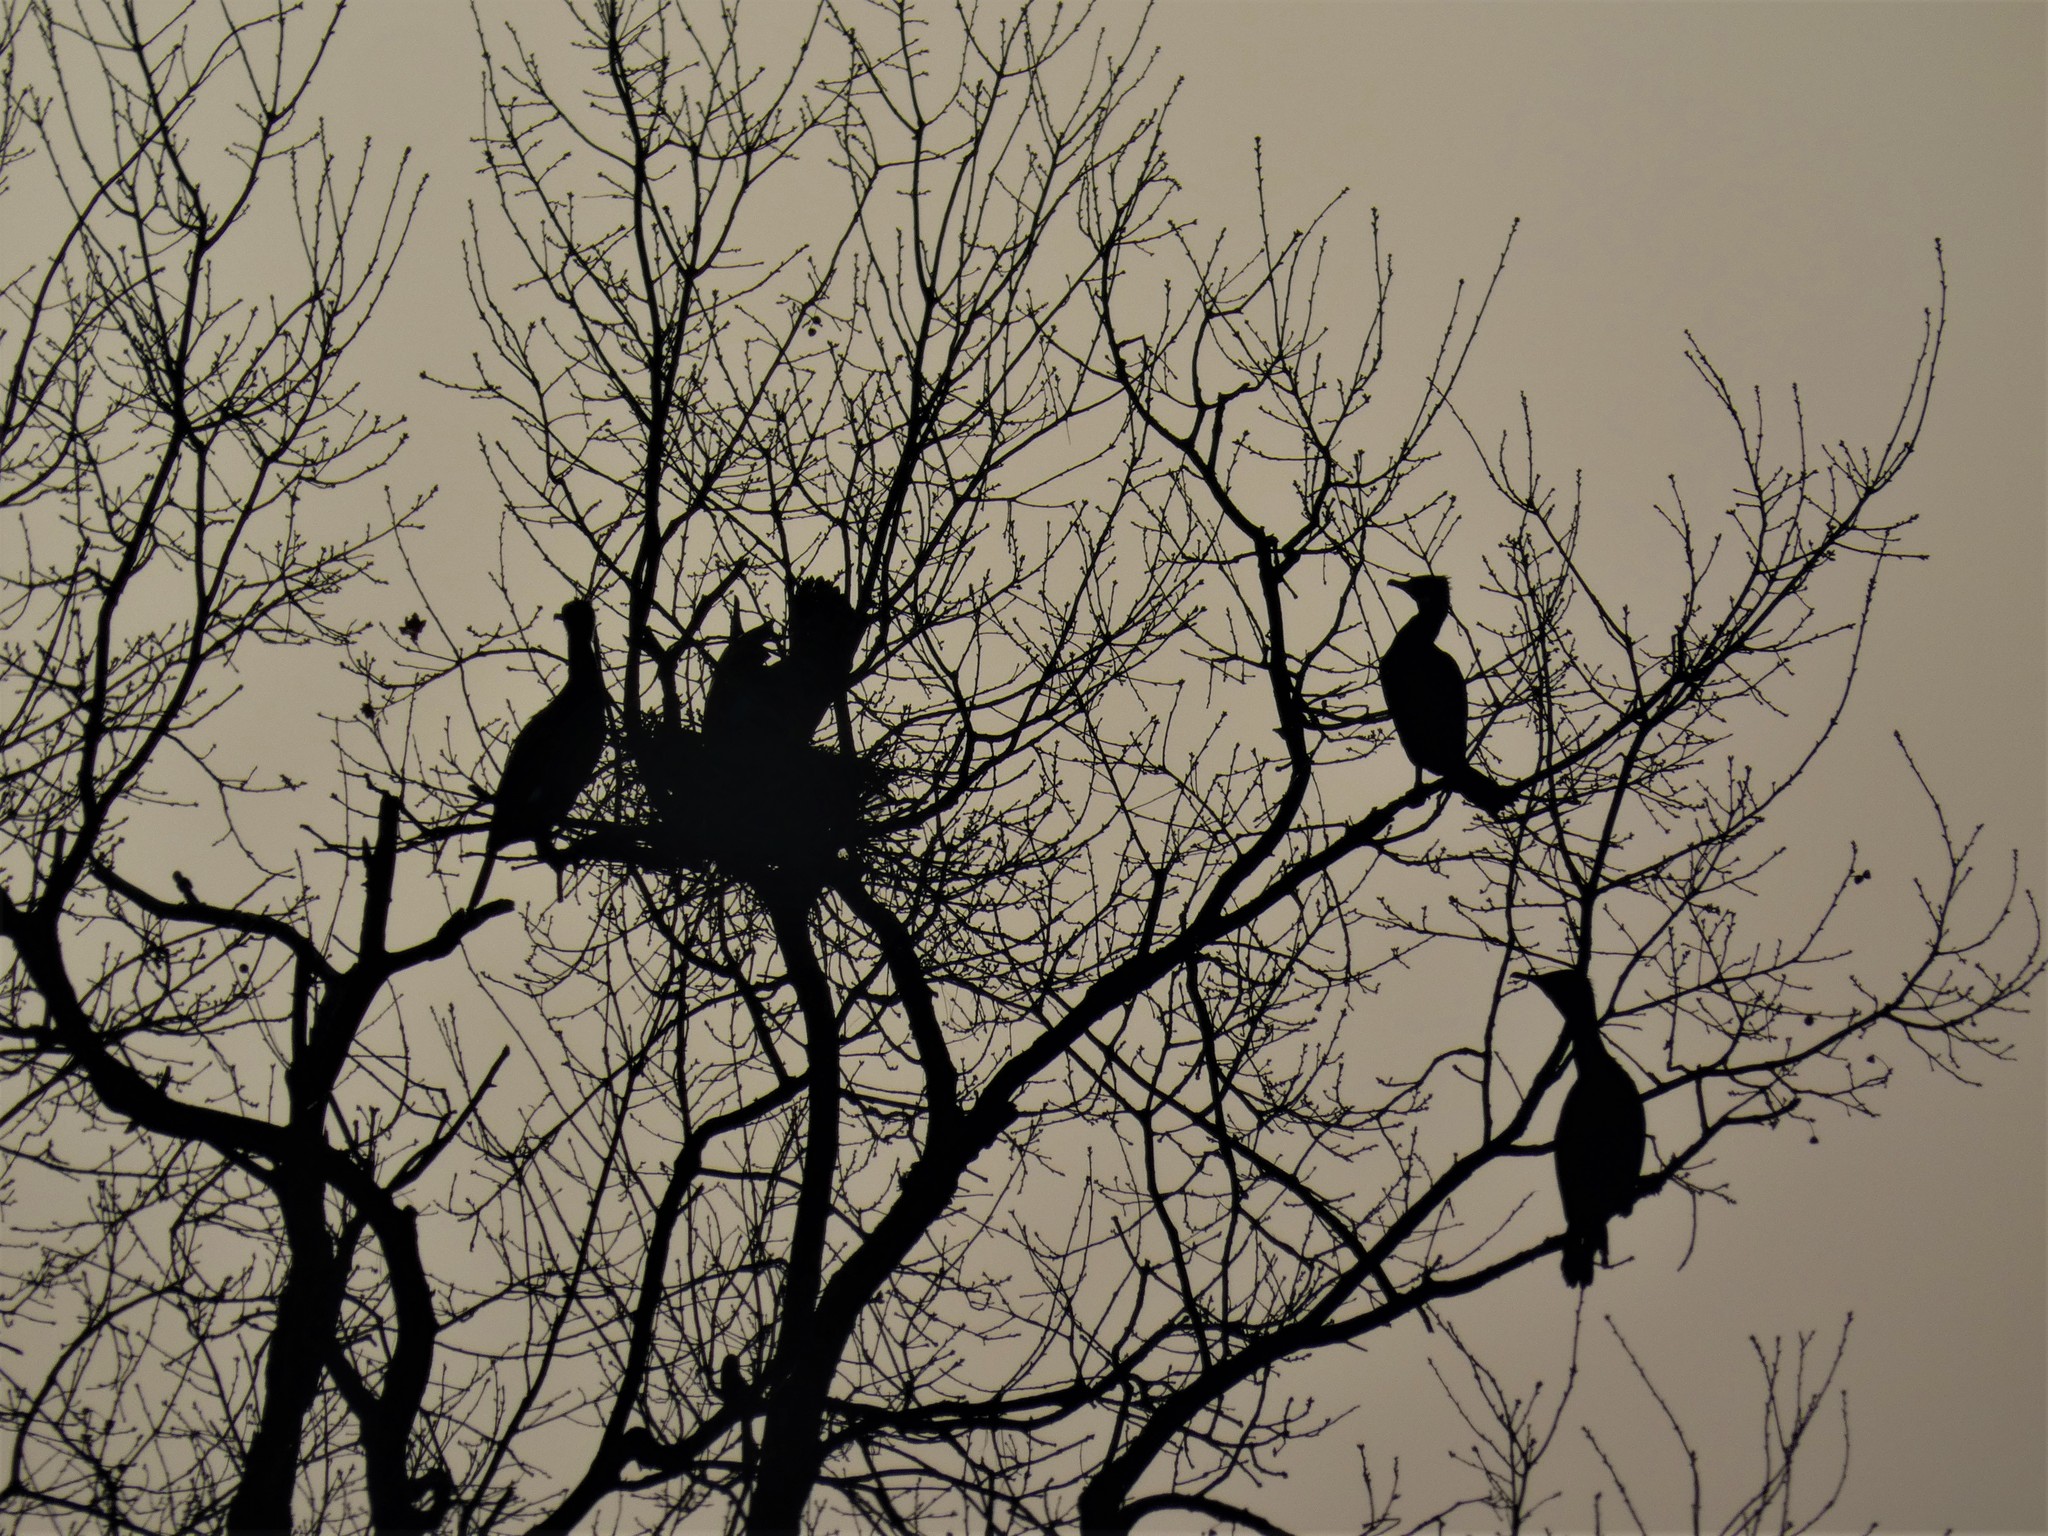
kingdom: Animalia
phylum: Chordata
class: Aves
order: Suliformes
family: Phalacrocoracidae
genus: Phalacrocorax
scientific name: Phalacrocorax carbo
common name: Great cormorant
